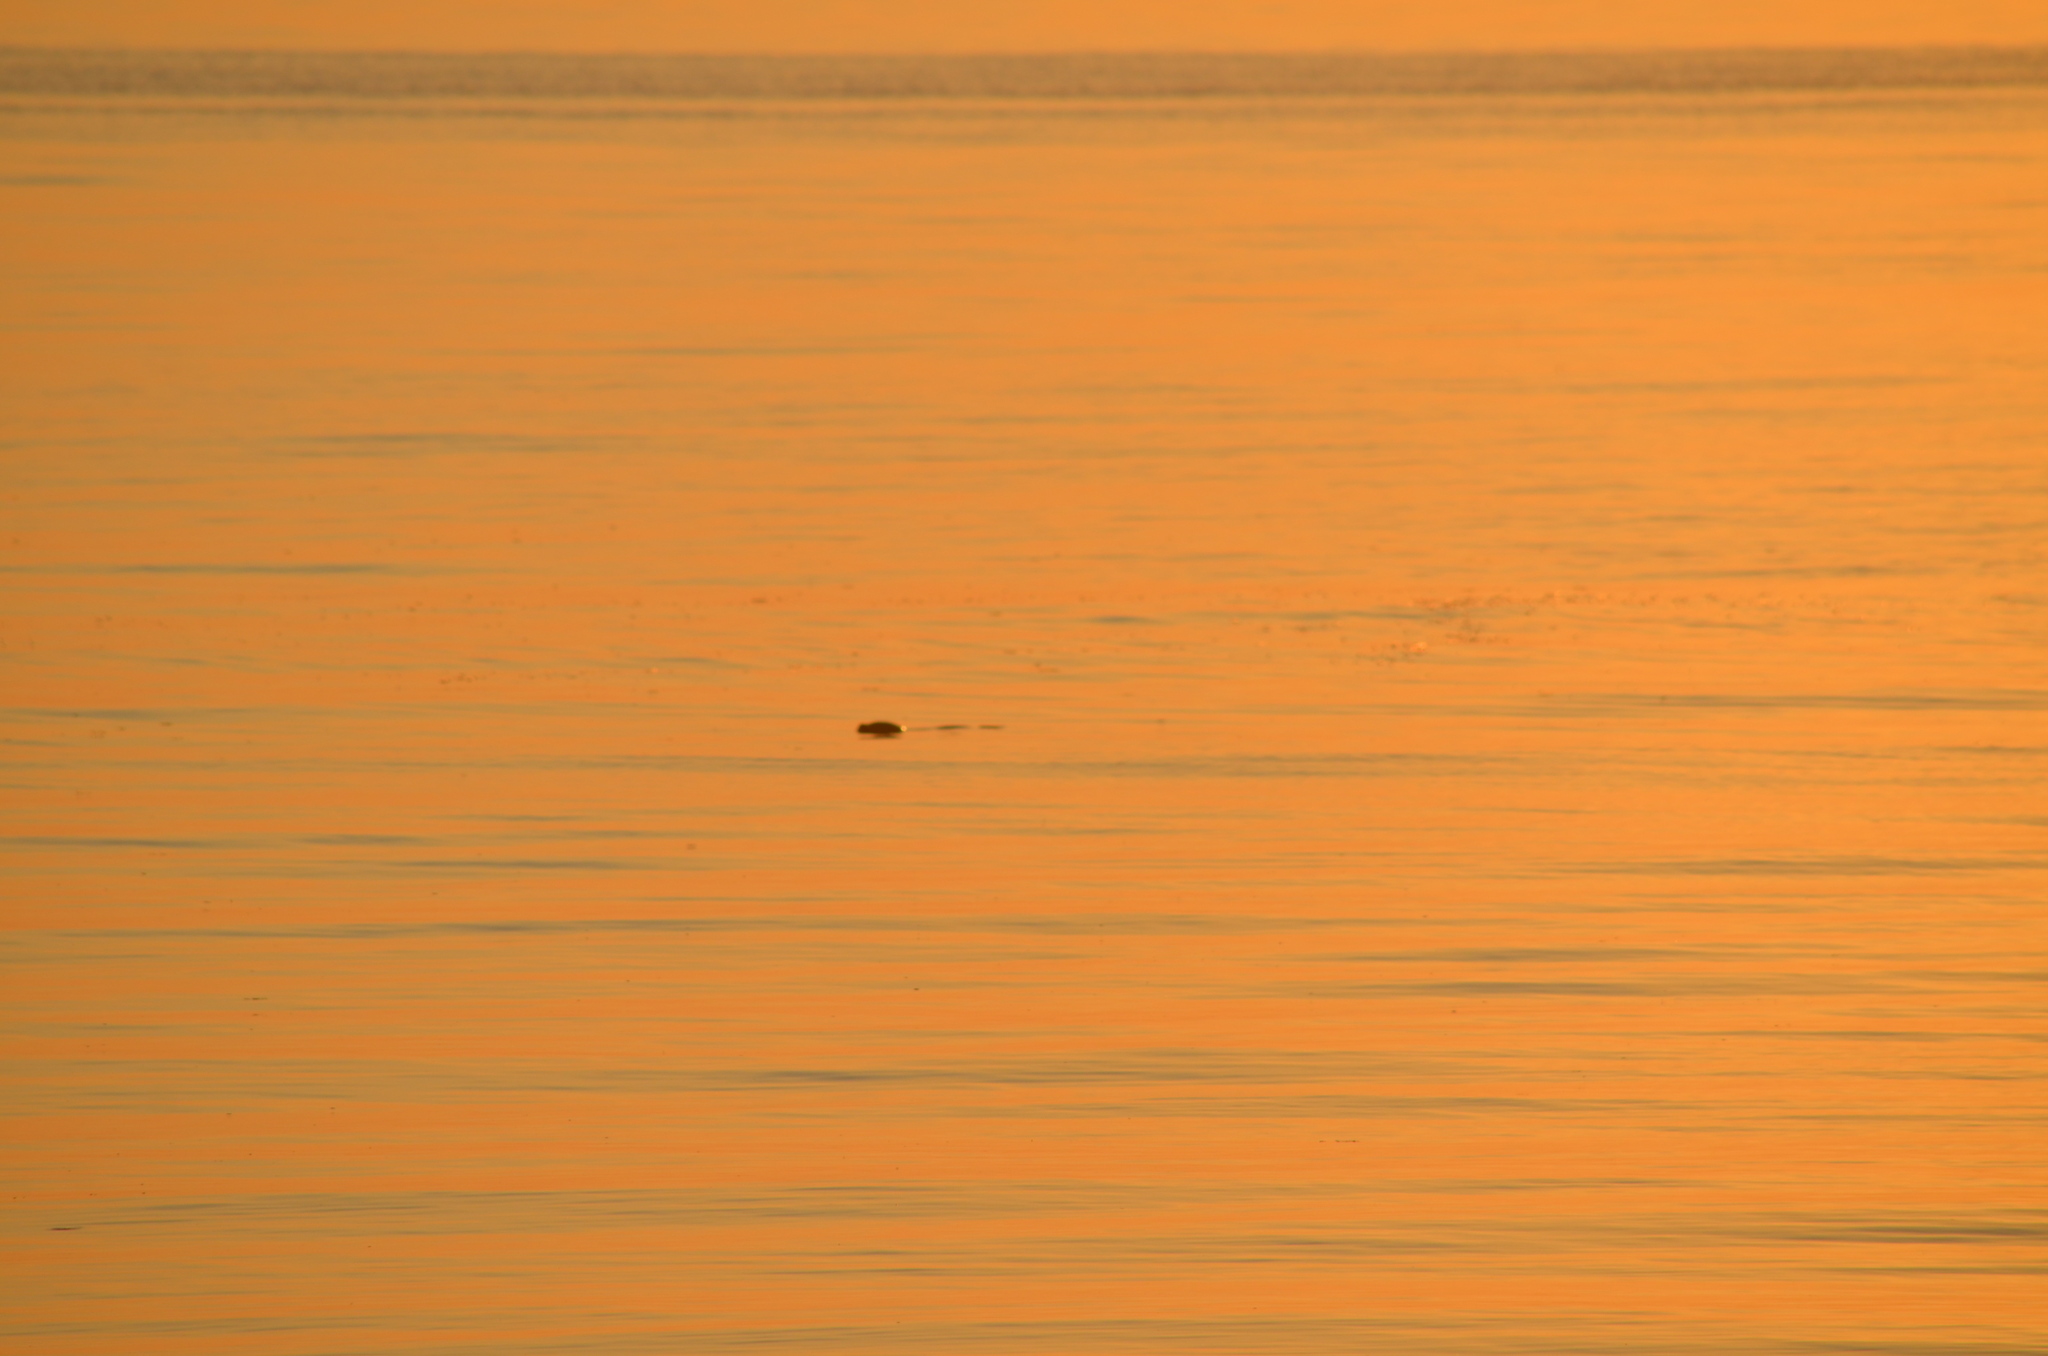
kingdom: Animalia
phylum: Chordata
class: Mammalia
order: Carnivora
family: Phocidae
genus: Phoca
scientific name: Phoca vitulina
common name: Harbor seal
